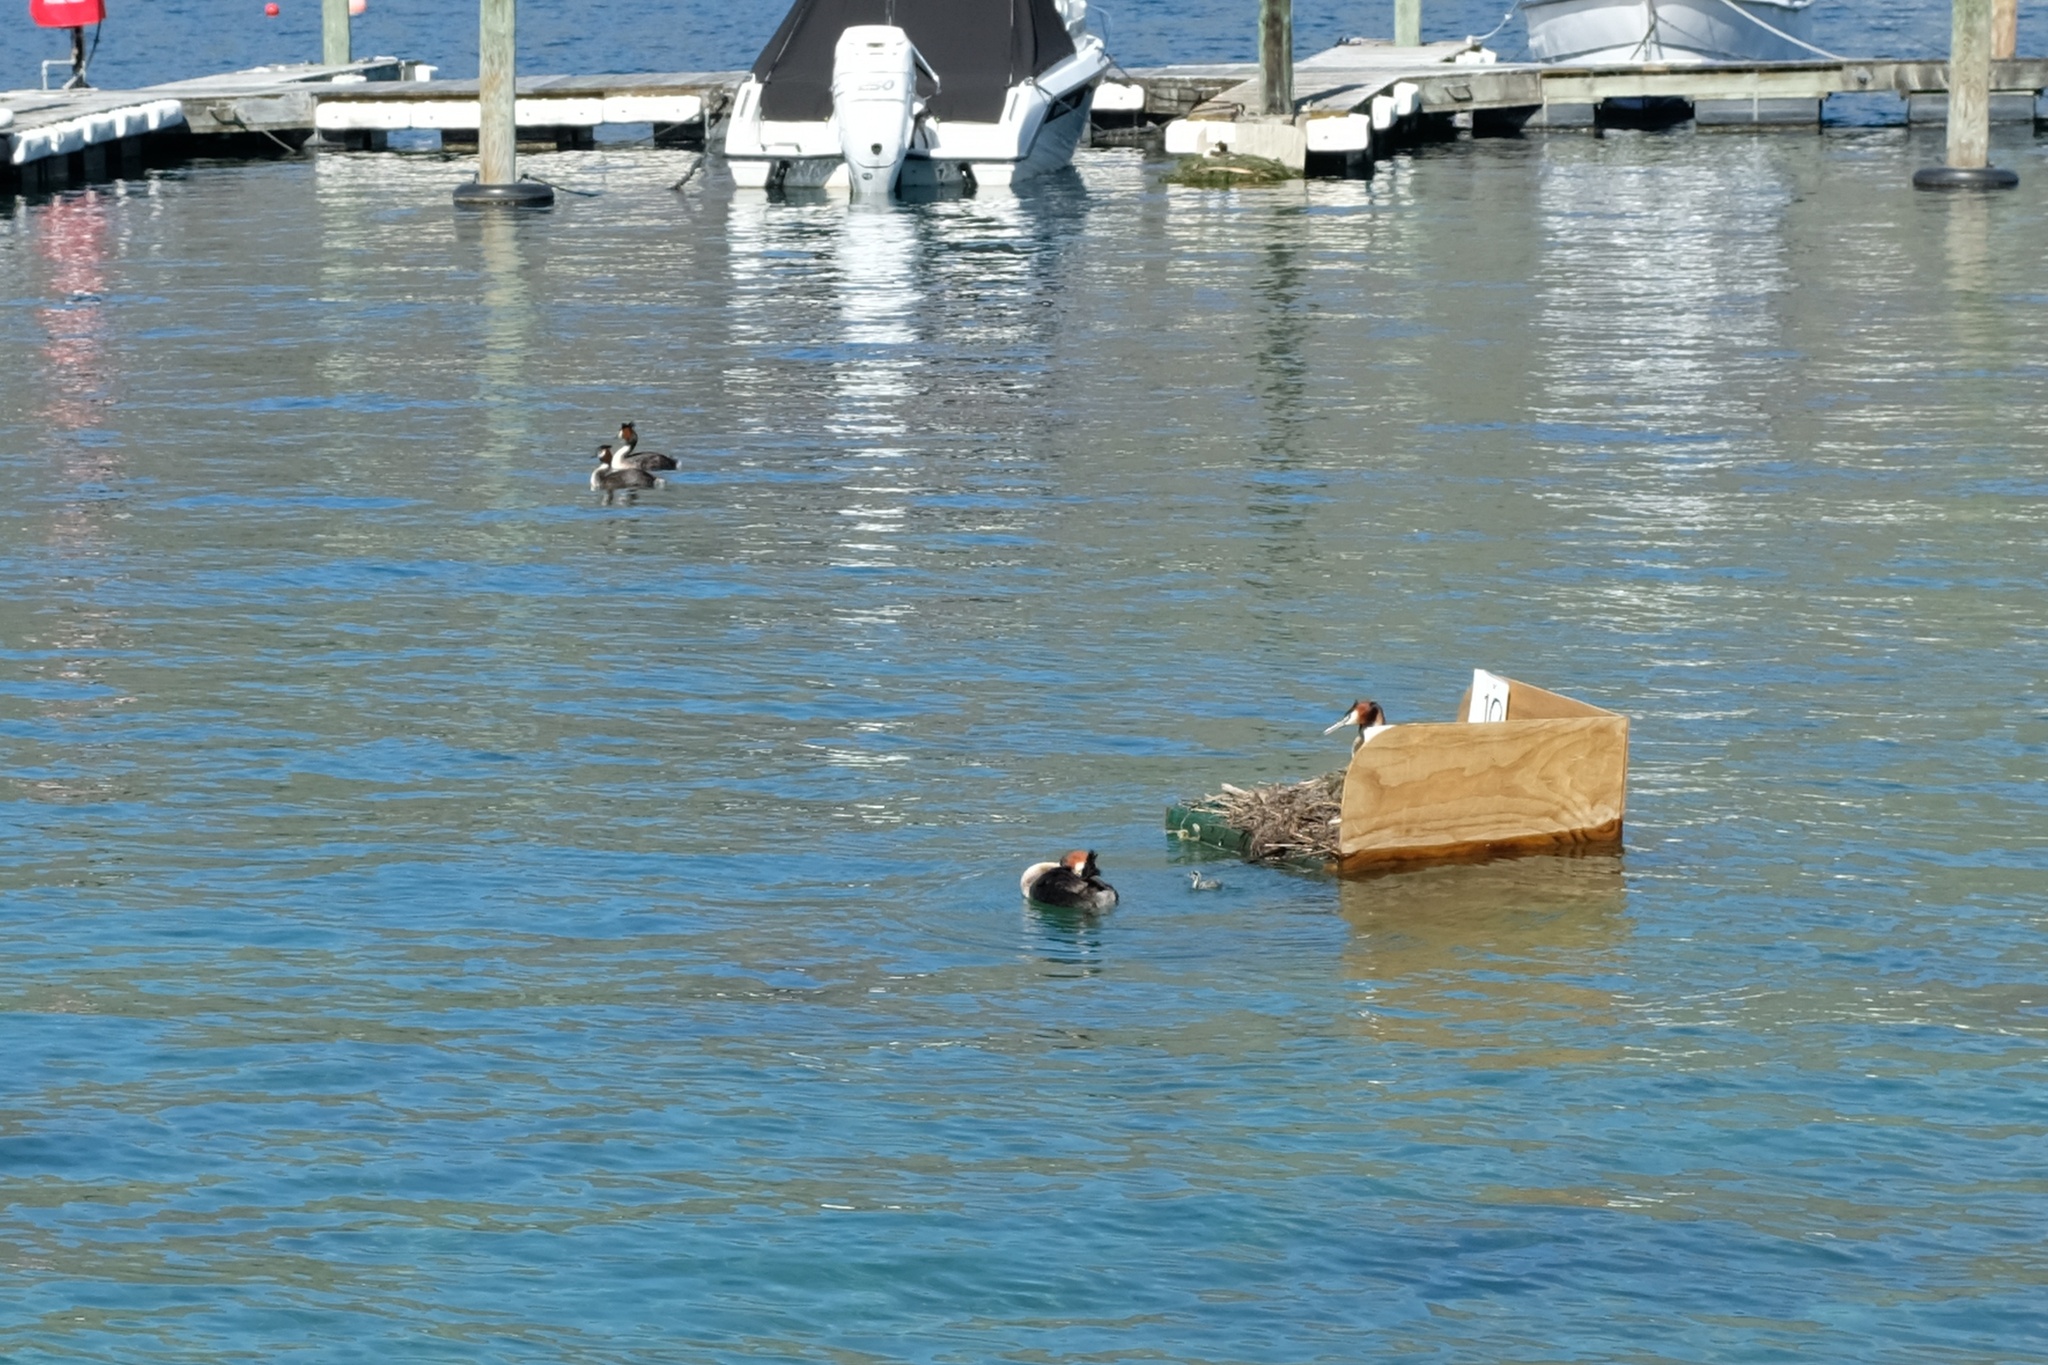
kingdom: Animalia
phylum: Chordata
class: Aves
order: Podicipediformes
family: Podicipedidae
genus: Podiceps
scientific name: Podiceps cristatus
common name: Great crested grebe
